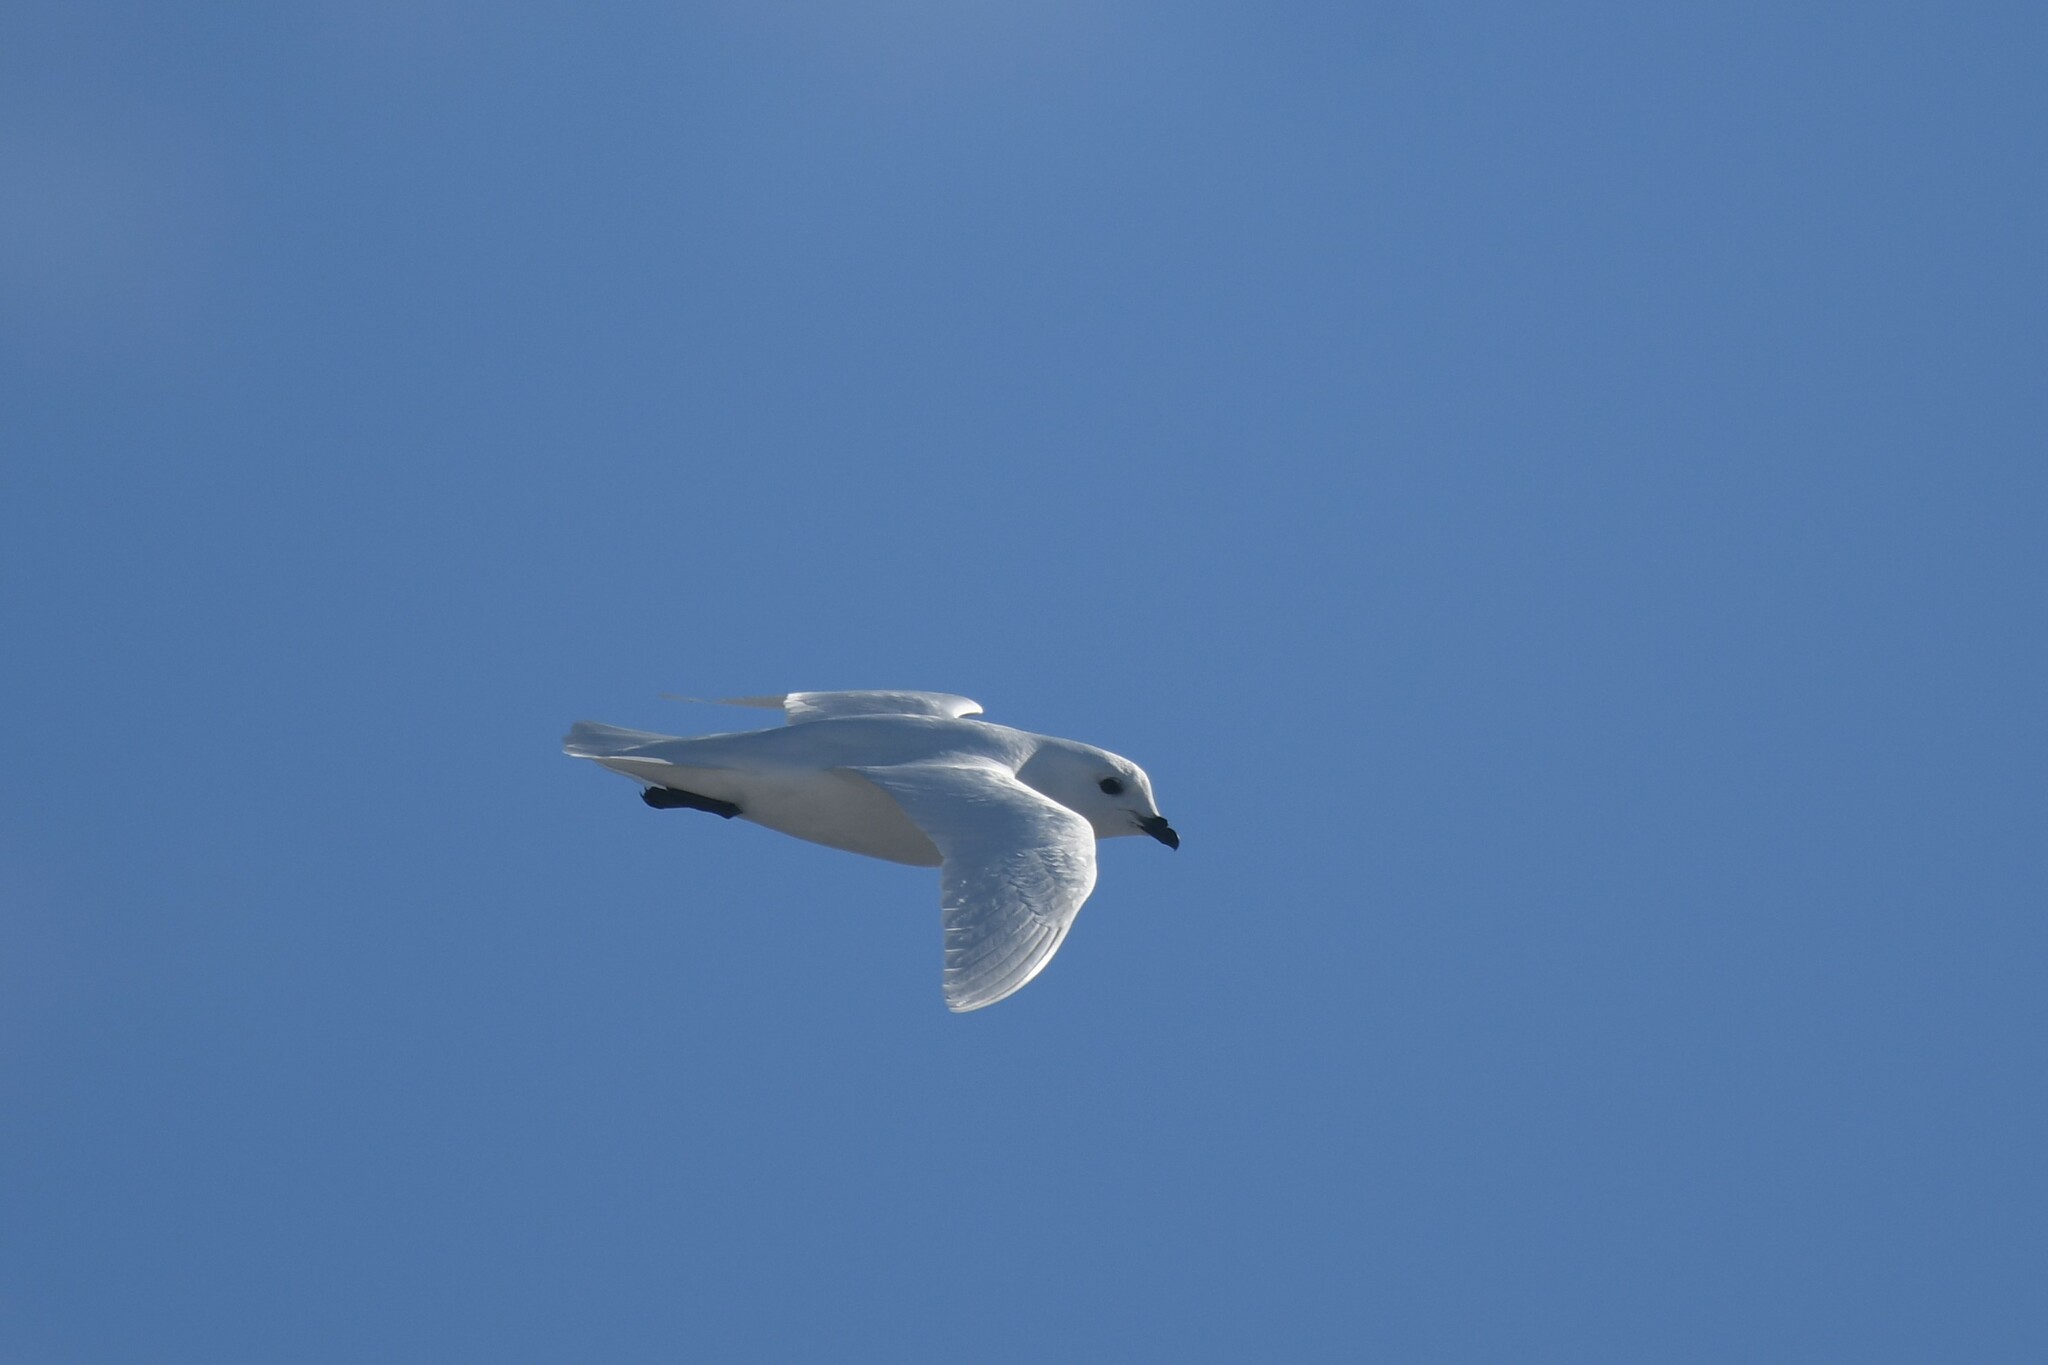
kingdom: Animalia
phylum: Chordata
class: Aves
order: Procellariiformes
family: Procellariidae
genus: Pagodroma
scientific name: Pagodroma nivea
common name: Snow petrel
